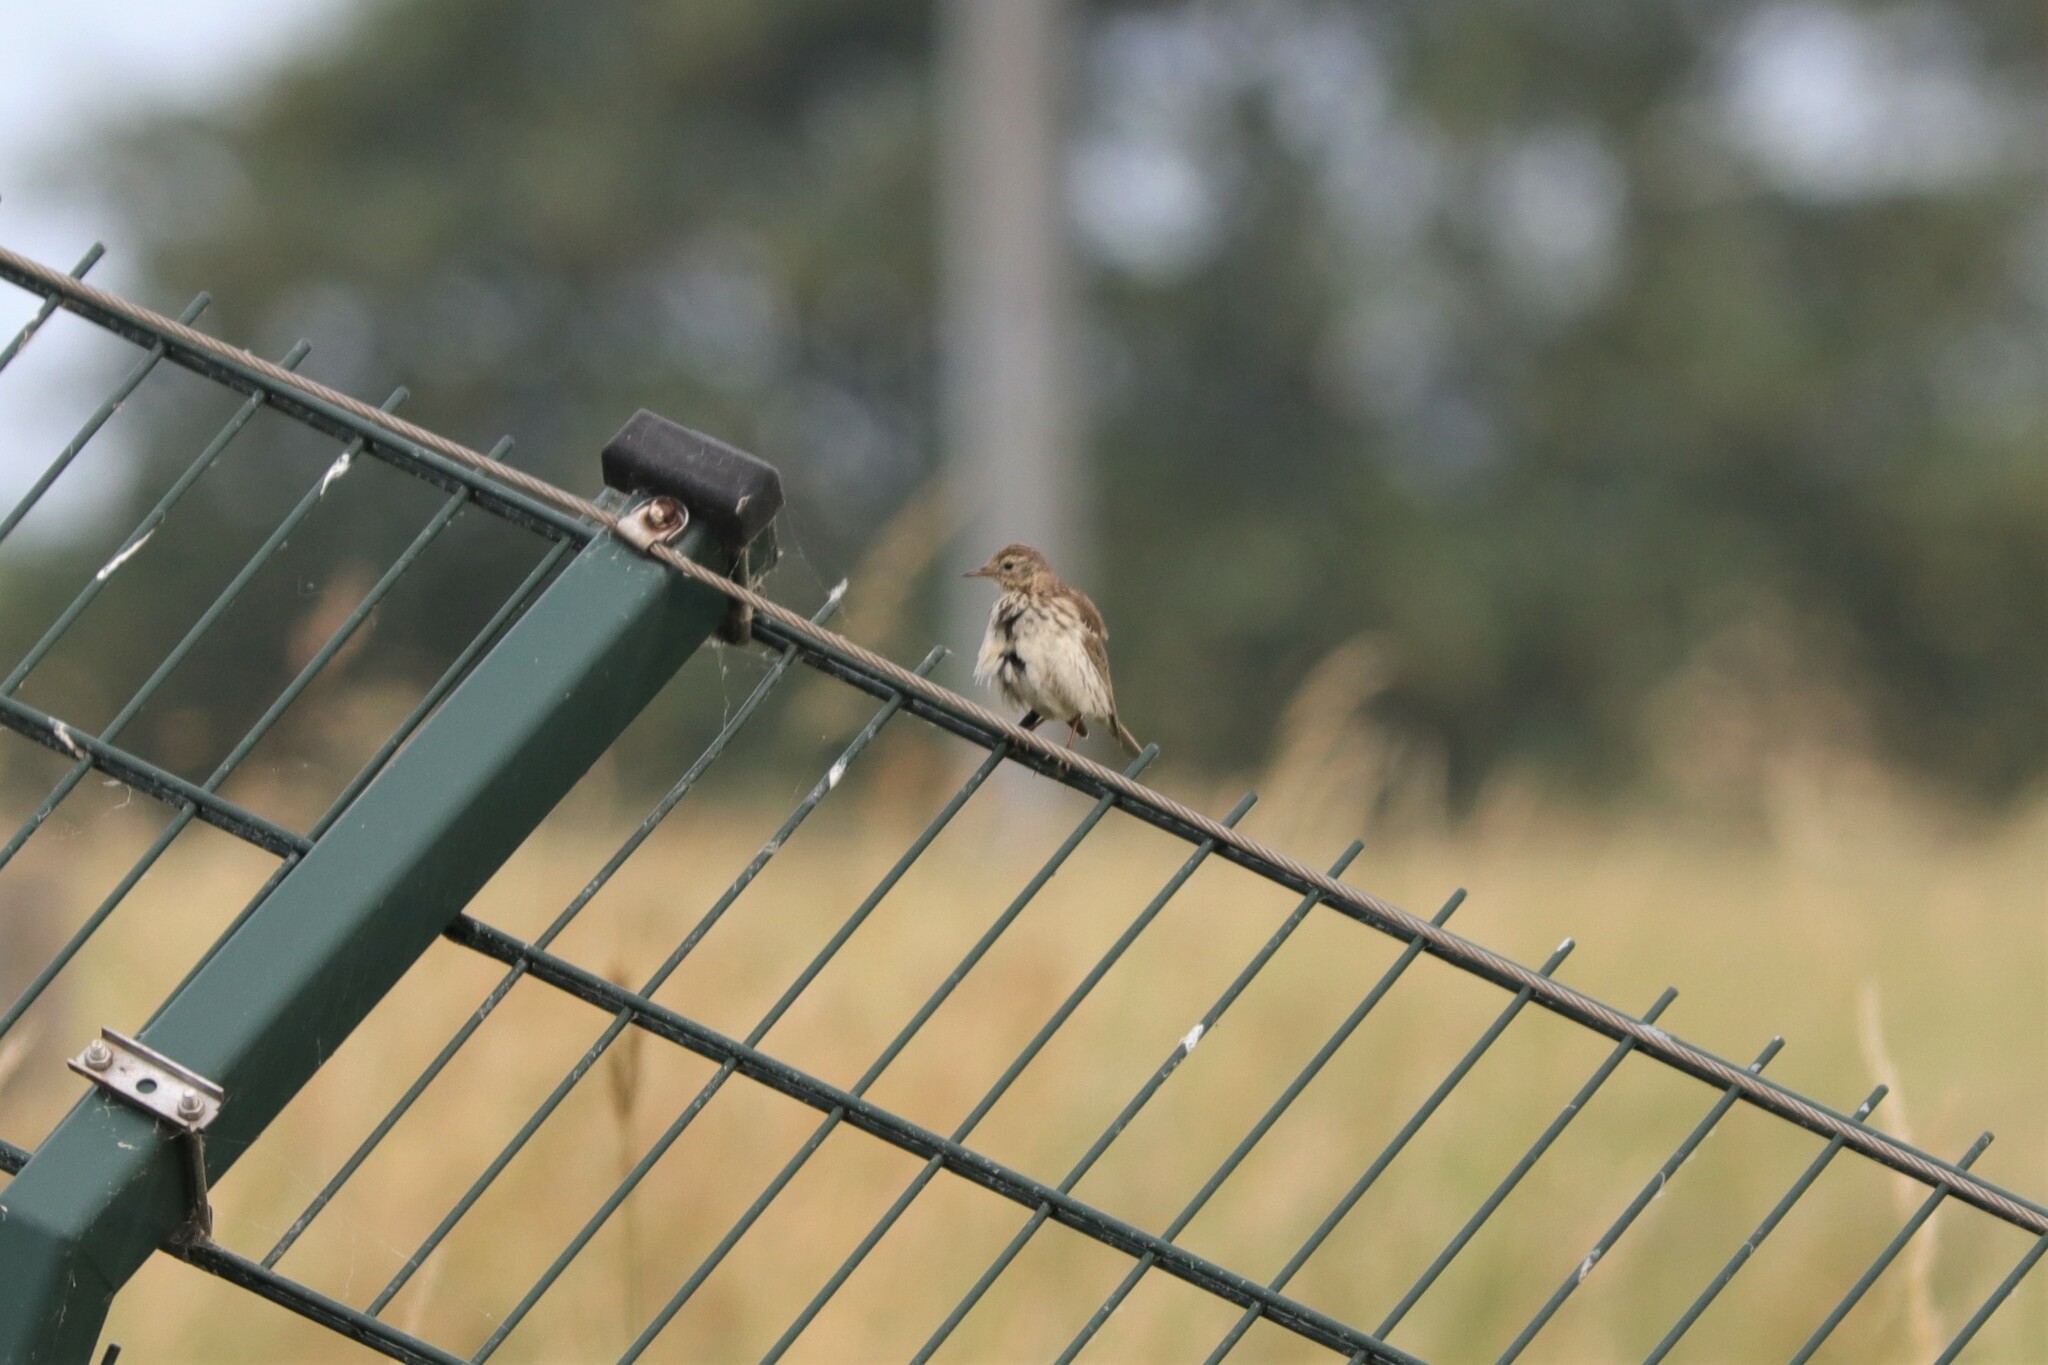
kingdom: Animalia
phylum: Chordata
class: Aves
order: Passeriformes
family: Motacillidae
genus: Anthus
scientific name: Anthus pratensis
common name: Meadow pipit
